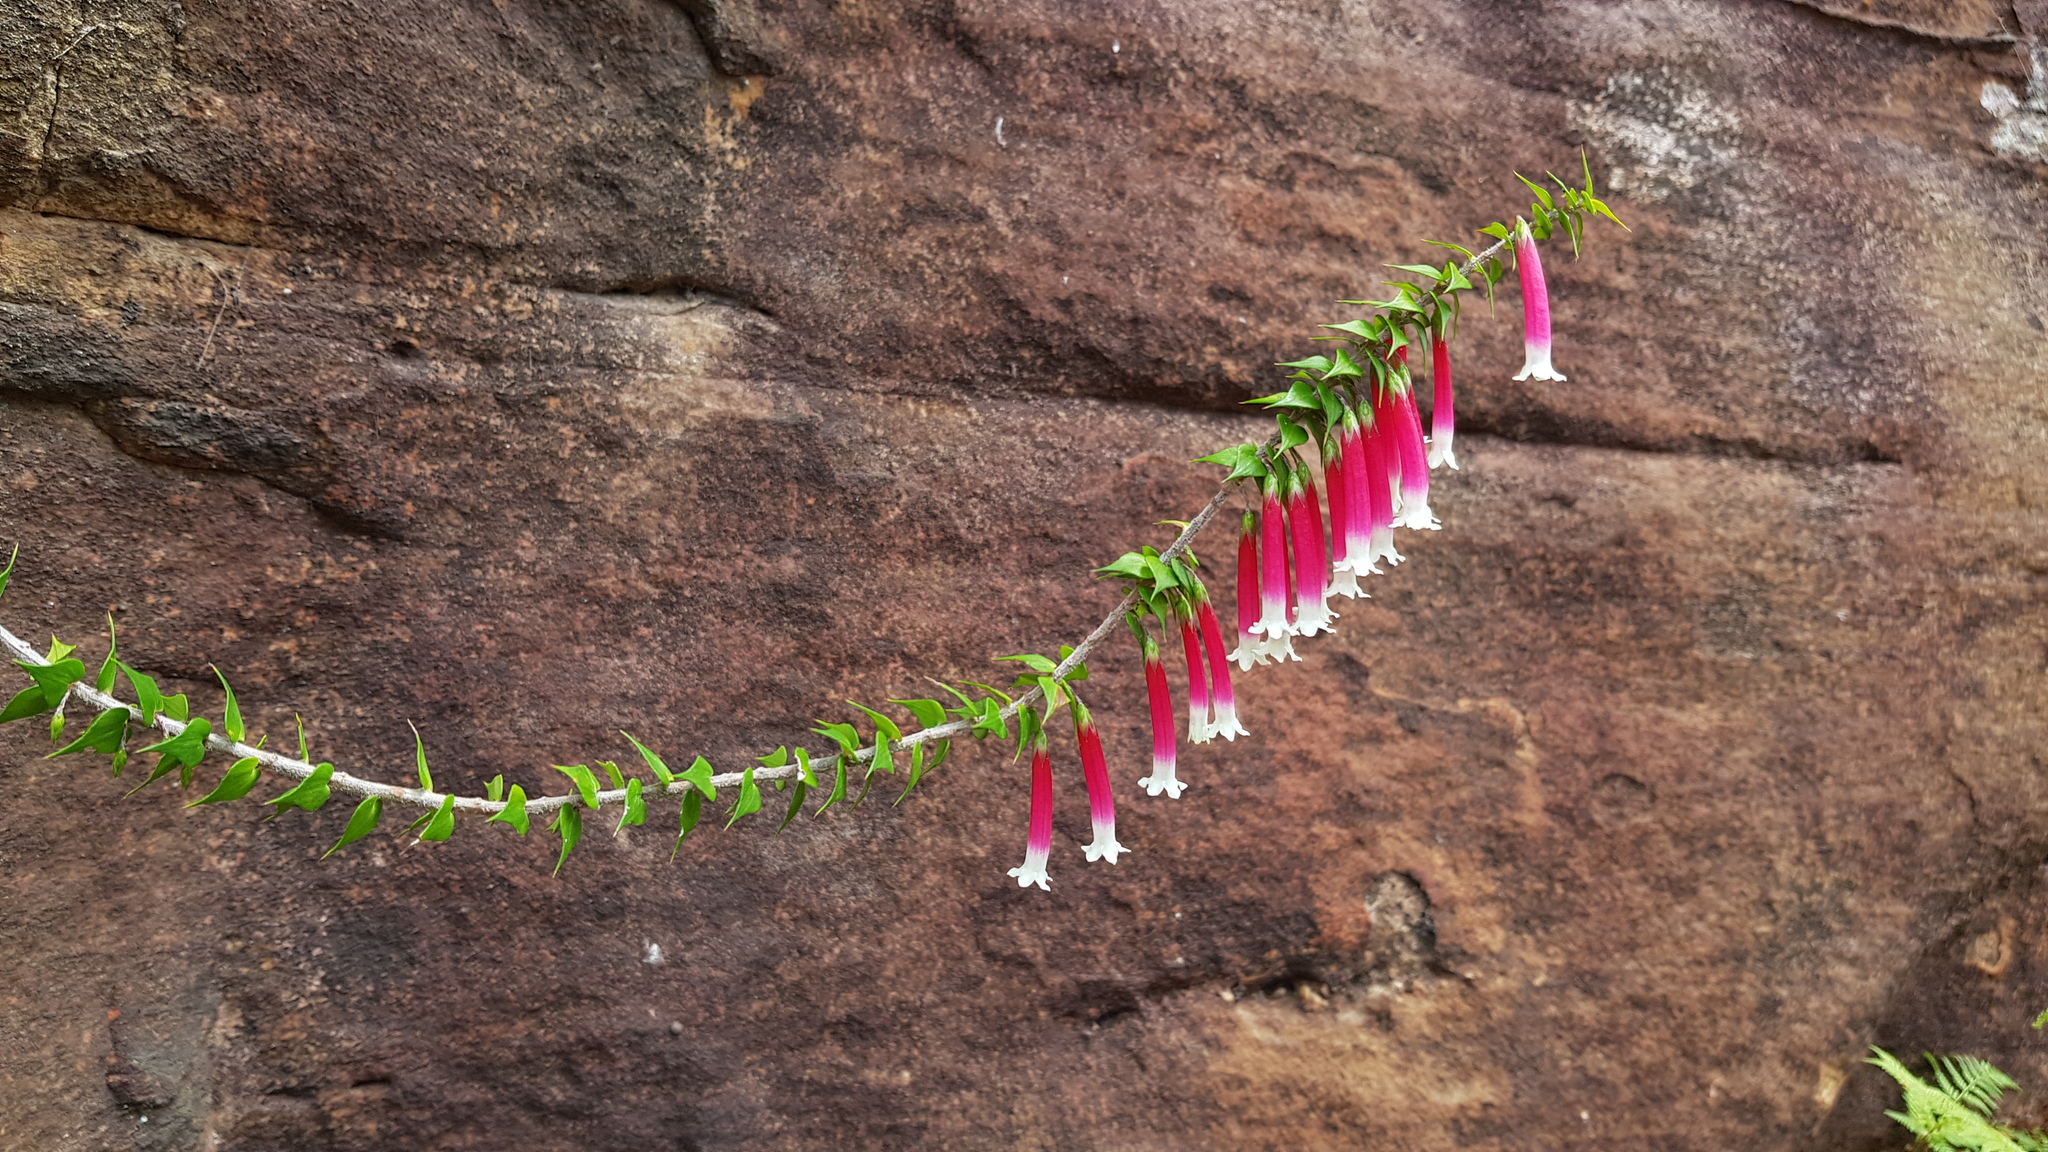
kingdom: Plantae
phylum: Tracheophyta
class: Magnoliopsida
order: Ericales
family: Ericaceae
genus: Epacris
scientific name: Epacris longiflora
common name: Fuchsia-heath
